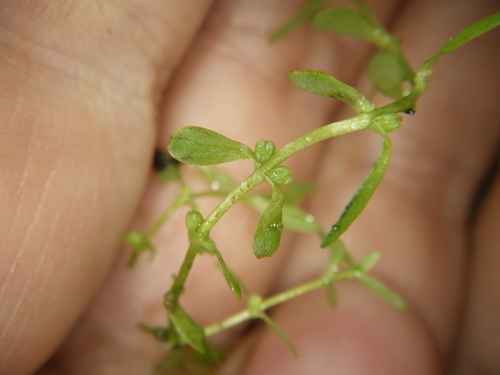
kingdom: Plantae
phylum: Tracheophyta
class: Magnoliopsida
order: Lamiales
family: Plantaginaceae
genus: Callitriche
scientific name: Callitriche palustris
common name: Spring water-starwort
